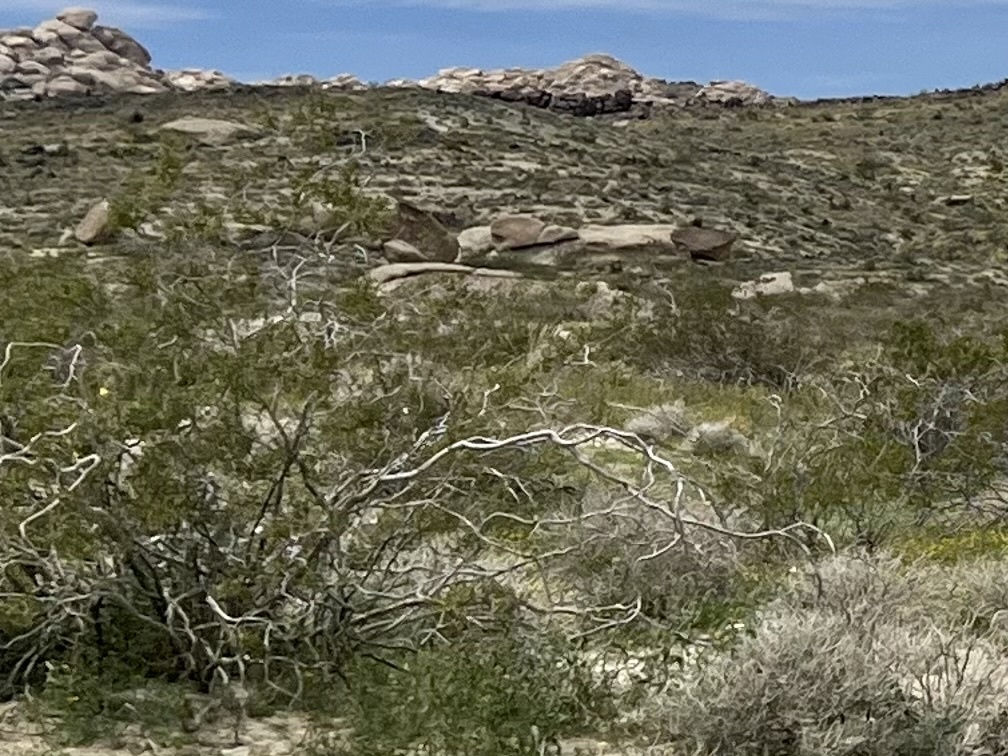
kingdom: Plantae
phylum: Tracheophyta
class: Magnoliopsida
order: Zygophyllales
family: Zygophyllaceae
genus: Larrea
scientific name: Larrea tridentata
